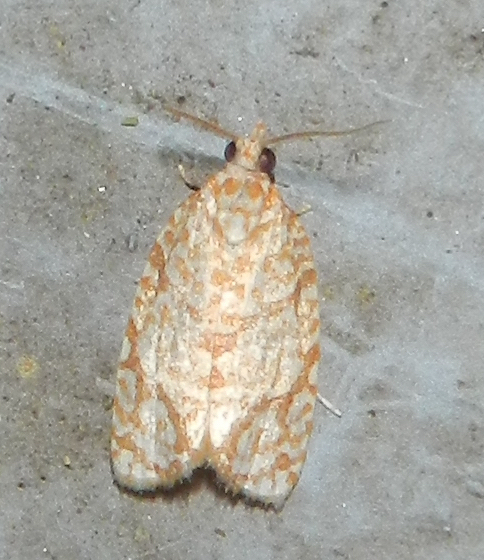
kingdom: Animalia
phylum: Arthropoda
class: Insecta
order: Lepidoptera
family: Tortricidae
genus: Argyrotaenia
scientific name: Argyrotaenia quercifoliana
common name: Yellow-winged oak leafroller moth
